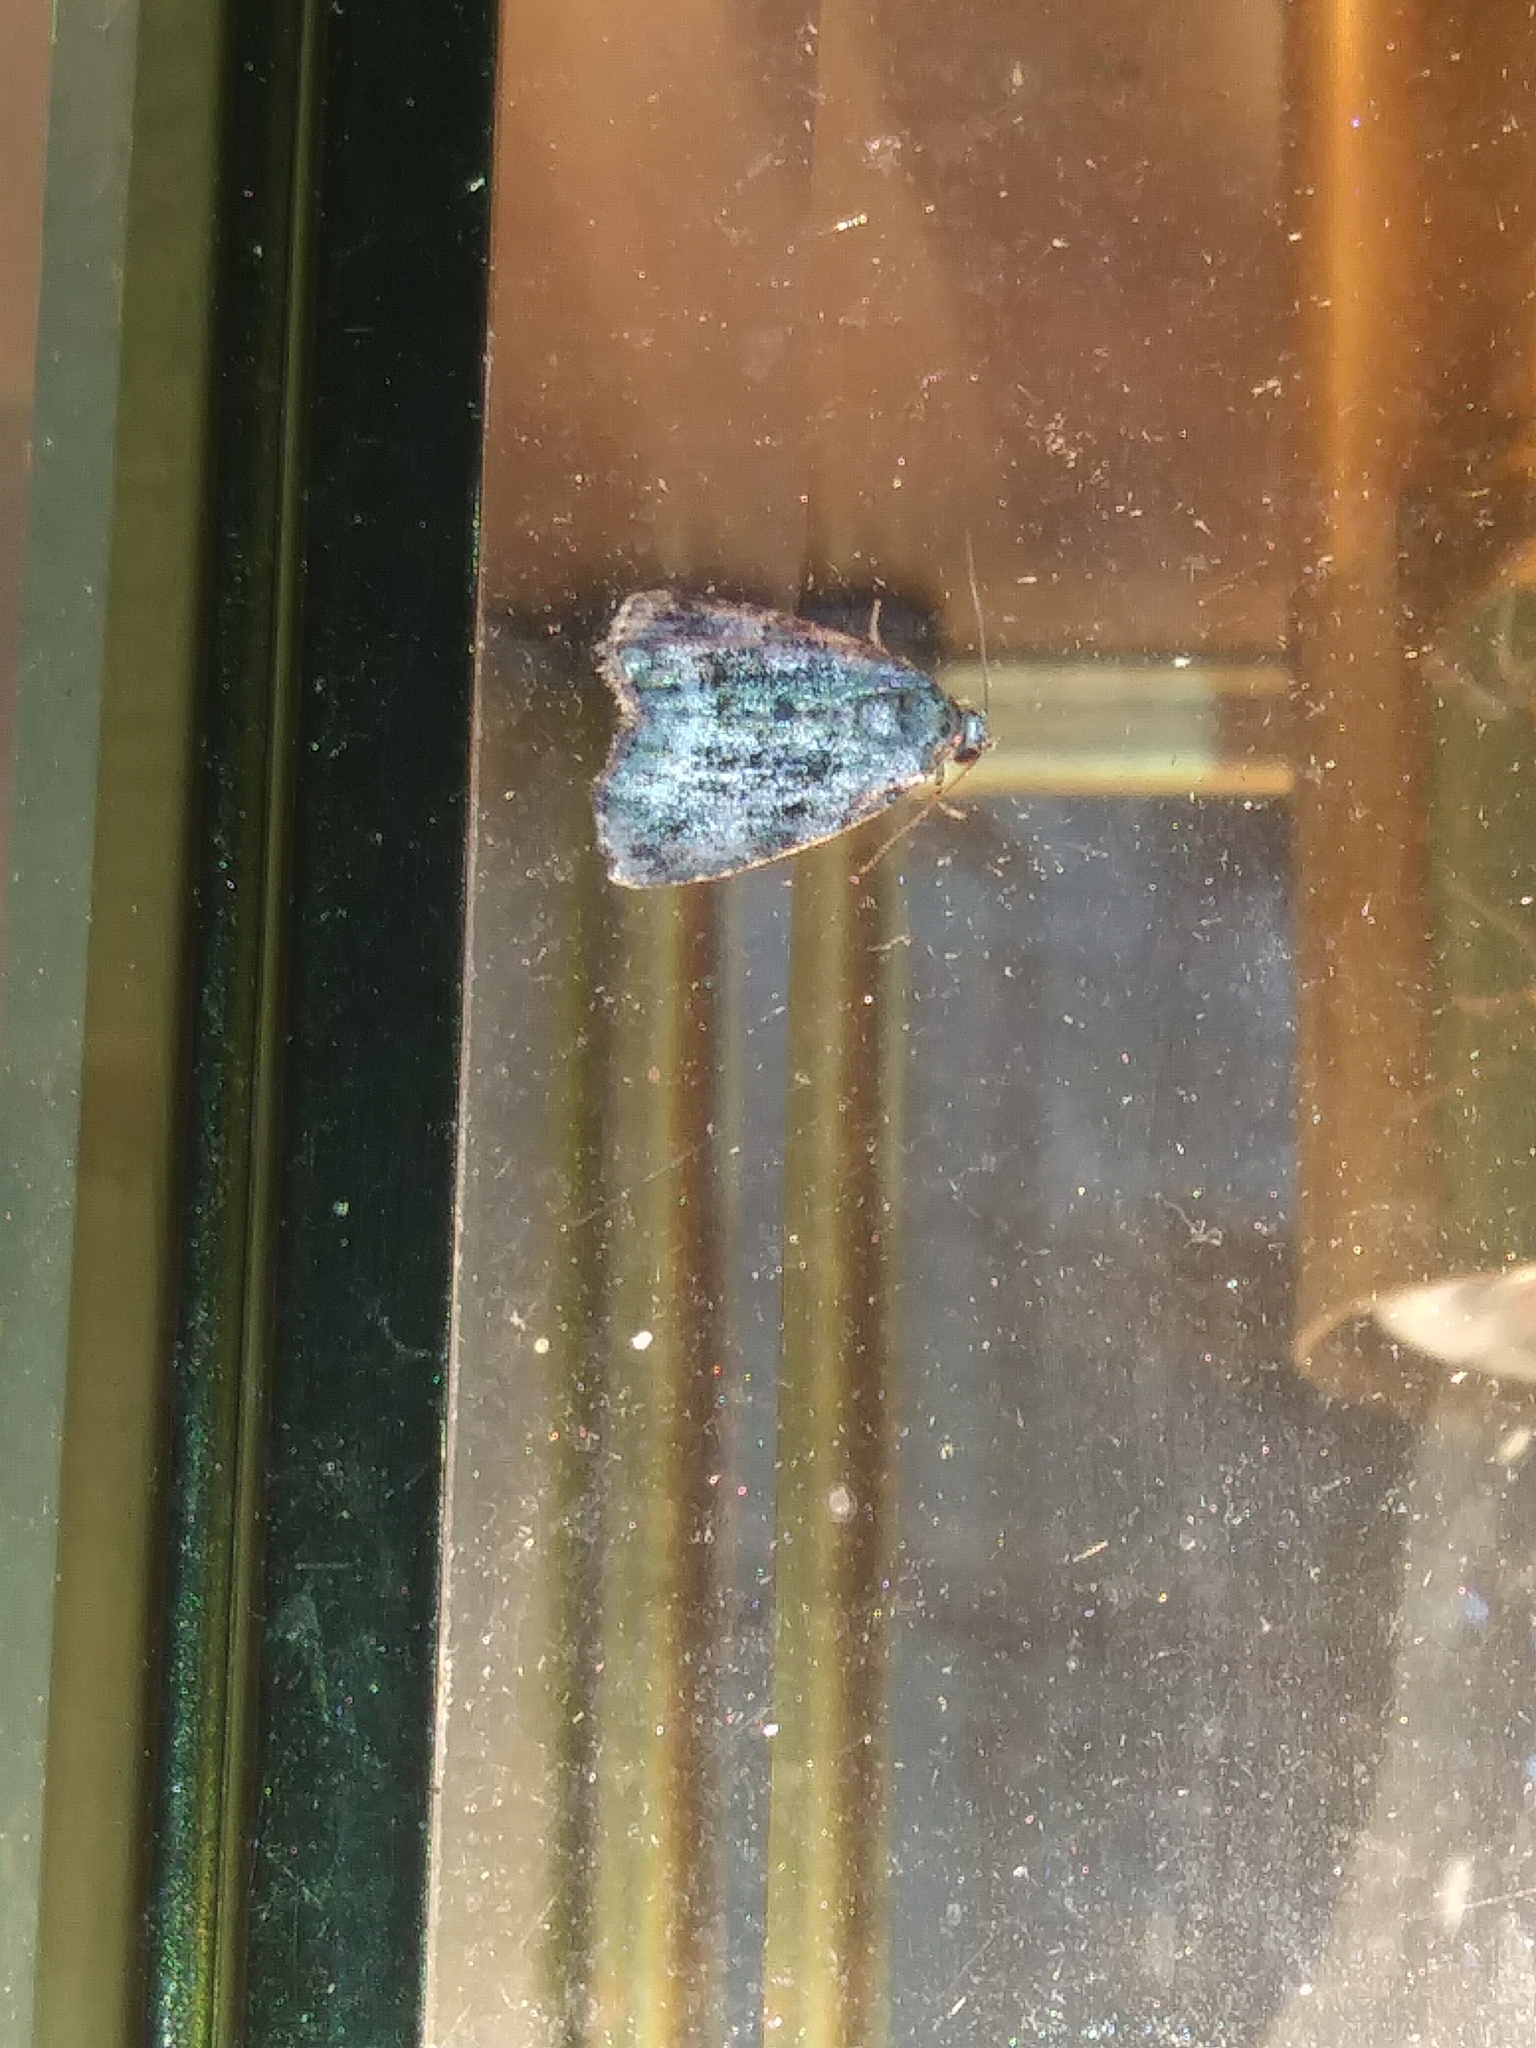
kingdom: Animalia
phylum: Arthropoda
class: Insecta
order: Lepidoptera
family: Noctuidae
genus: Protodeltote
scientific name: Protodeltote muscosula
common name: Large mossy glyph
